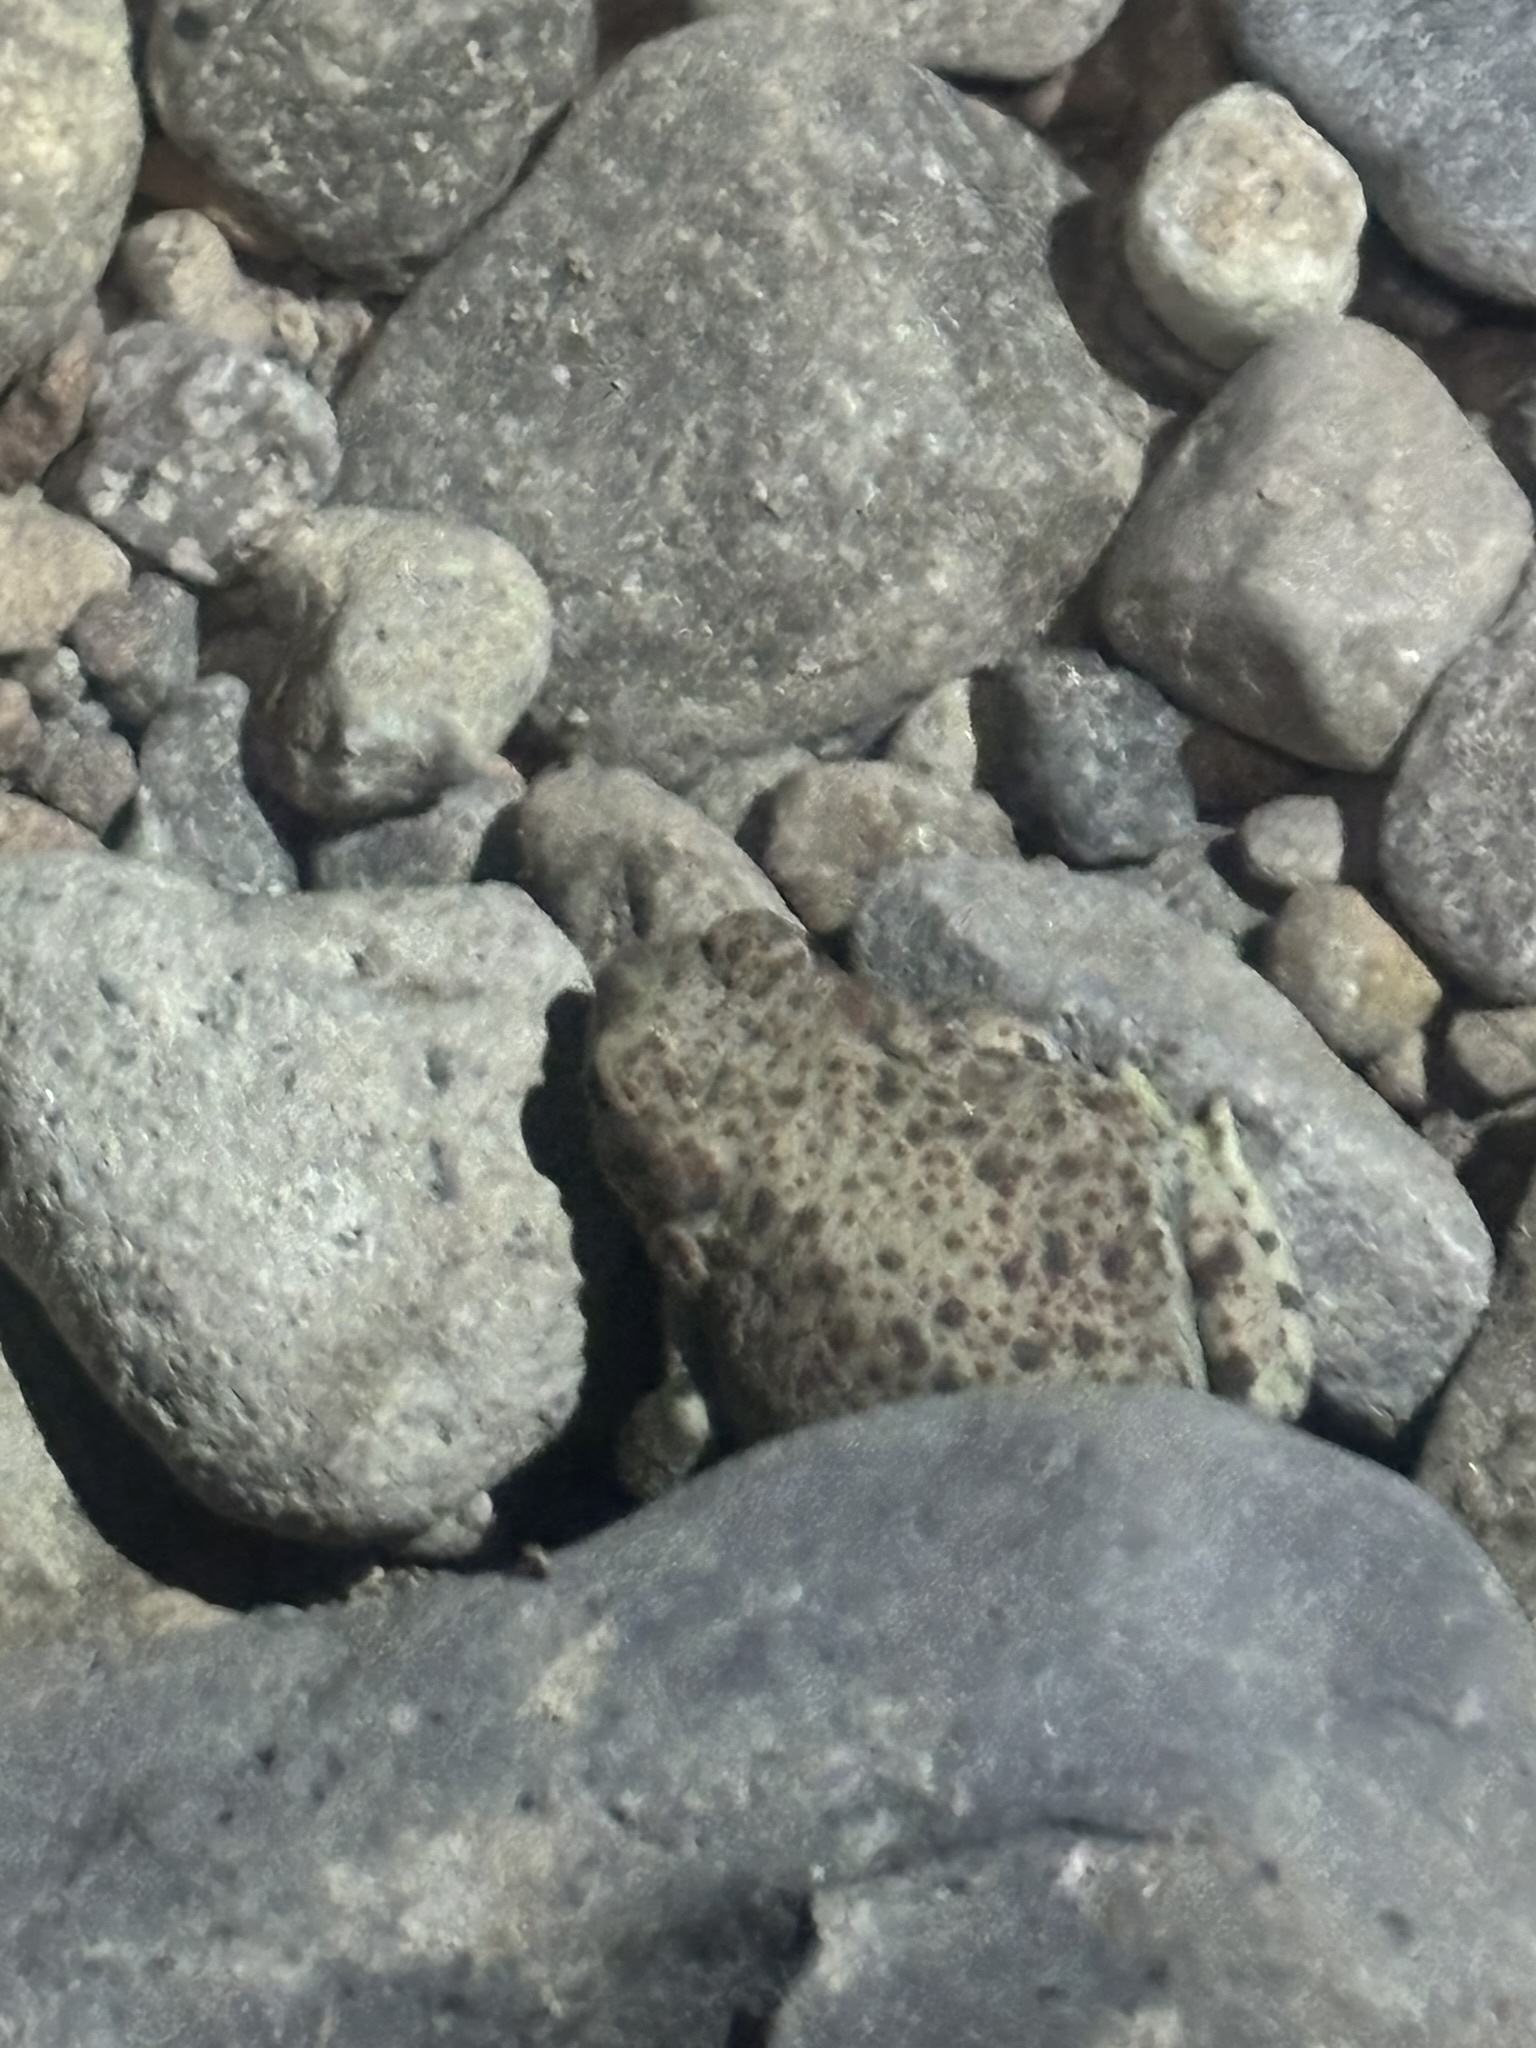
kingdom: Animalia
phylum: Chordata
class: Amphibia
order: Anura
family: Bufonidae
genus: Anaxyrus
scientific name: Anaxyrus punctatus
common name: Red-spotted toad
